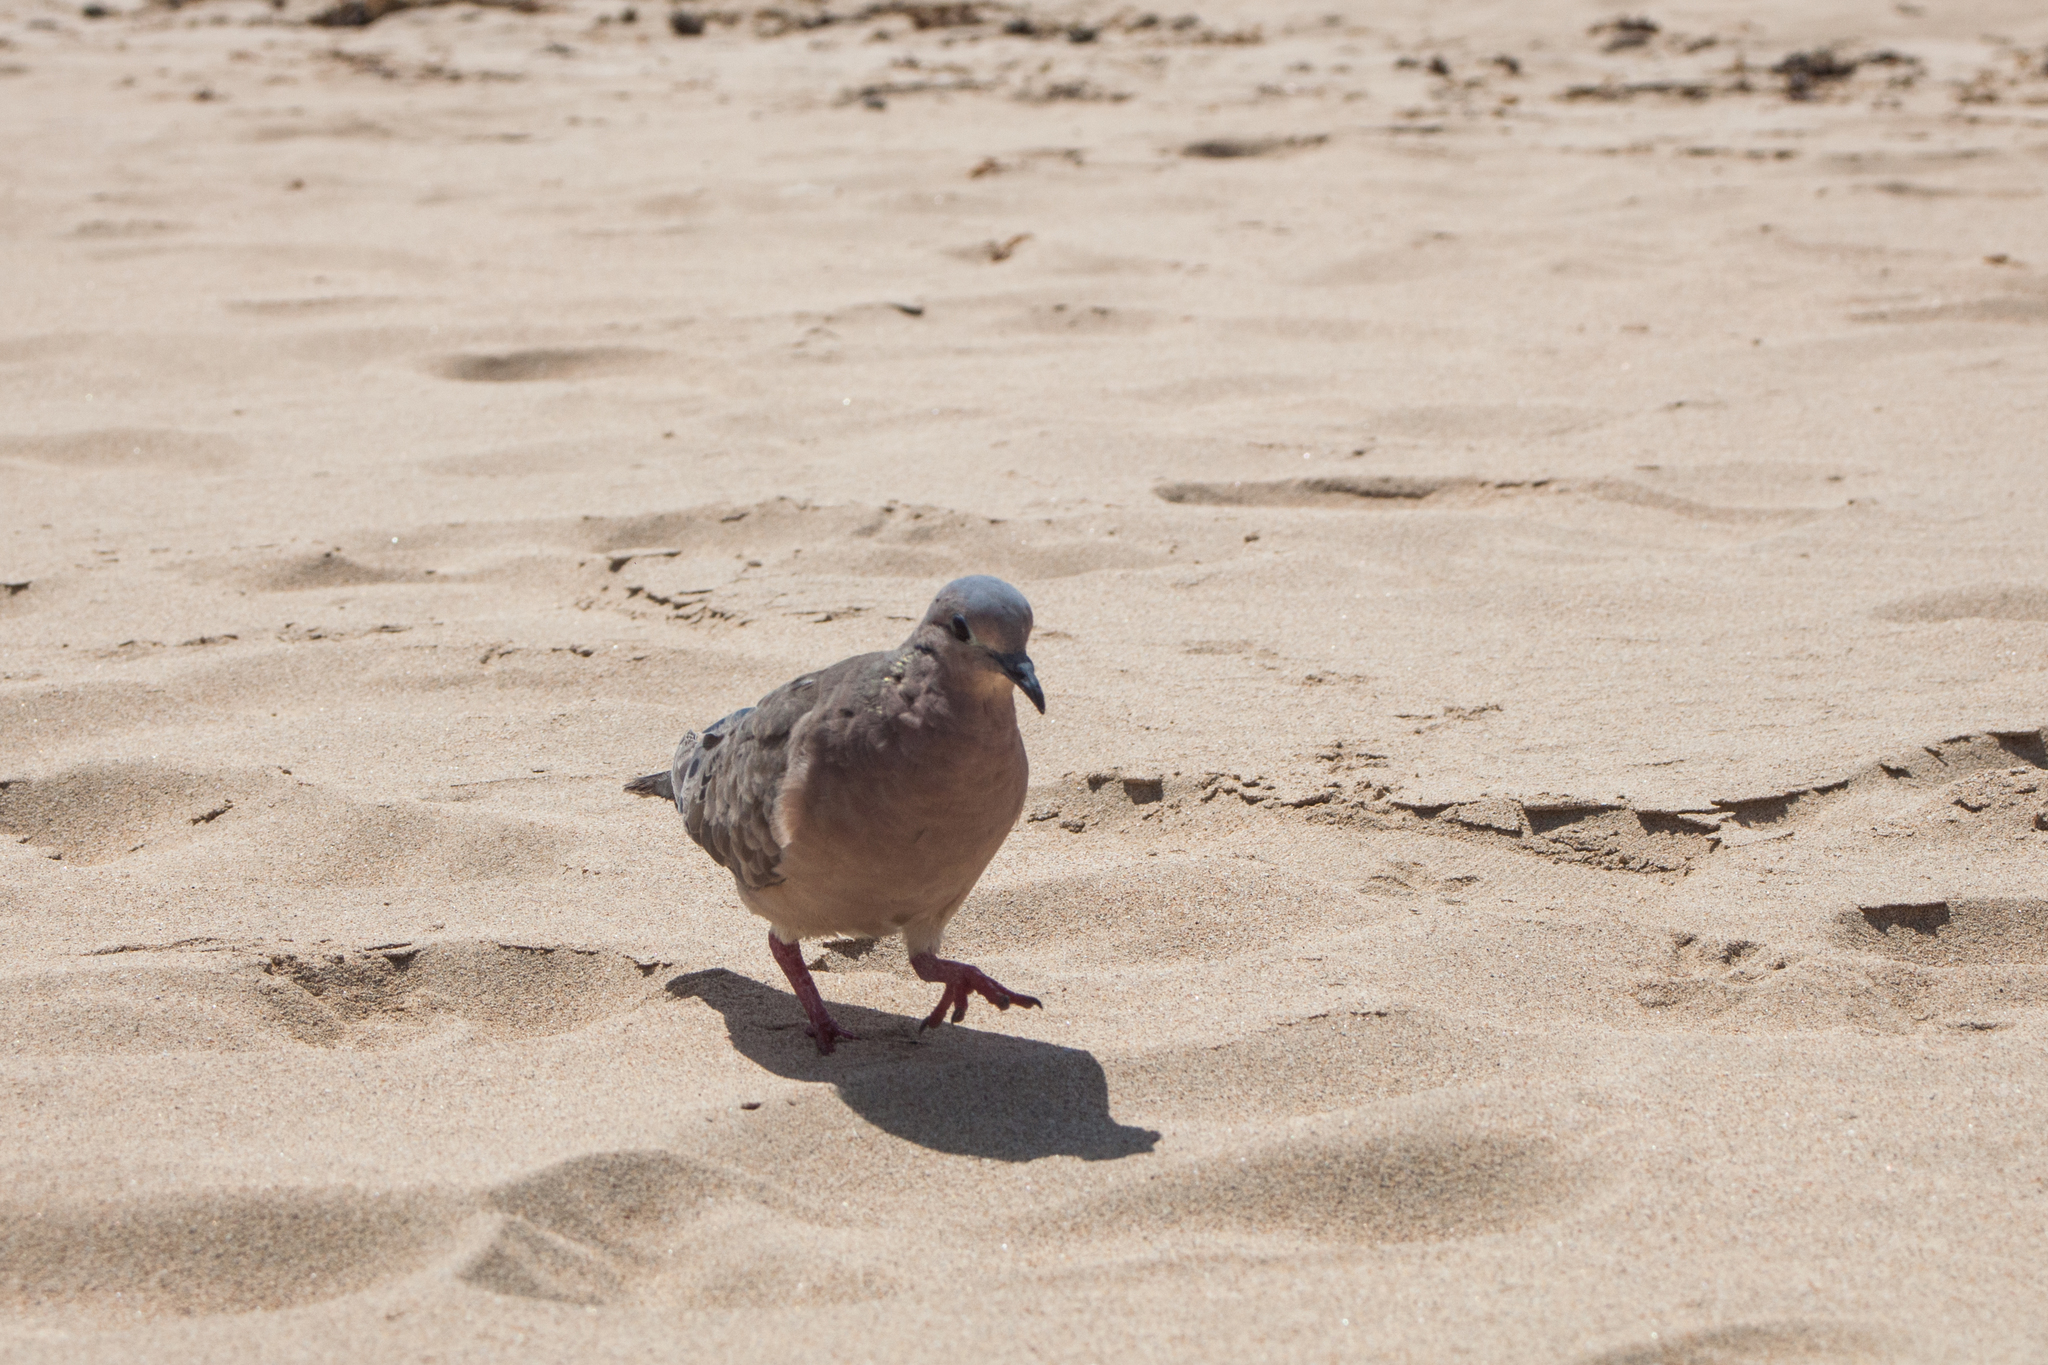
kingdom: Animalia
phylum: Chordata
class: Aves
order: Columbiformes
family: Columbidae
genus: Zenaida
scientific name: Zenaida auriculata
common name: Eared dove
